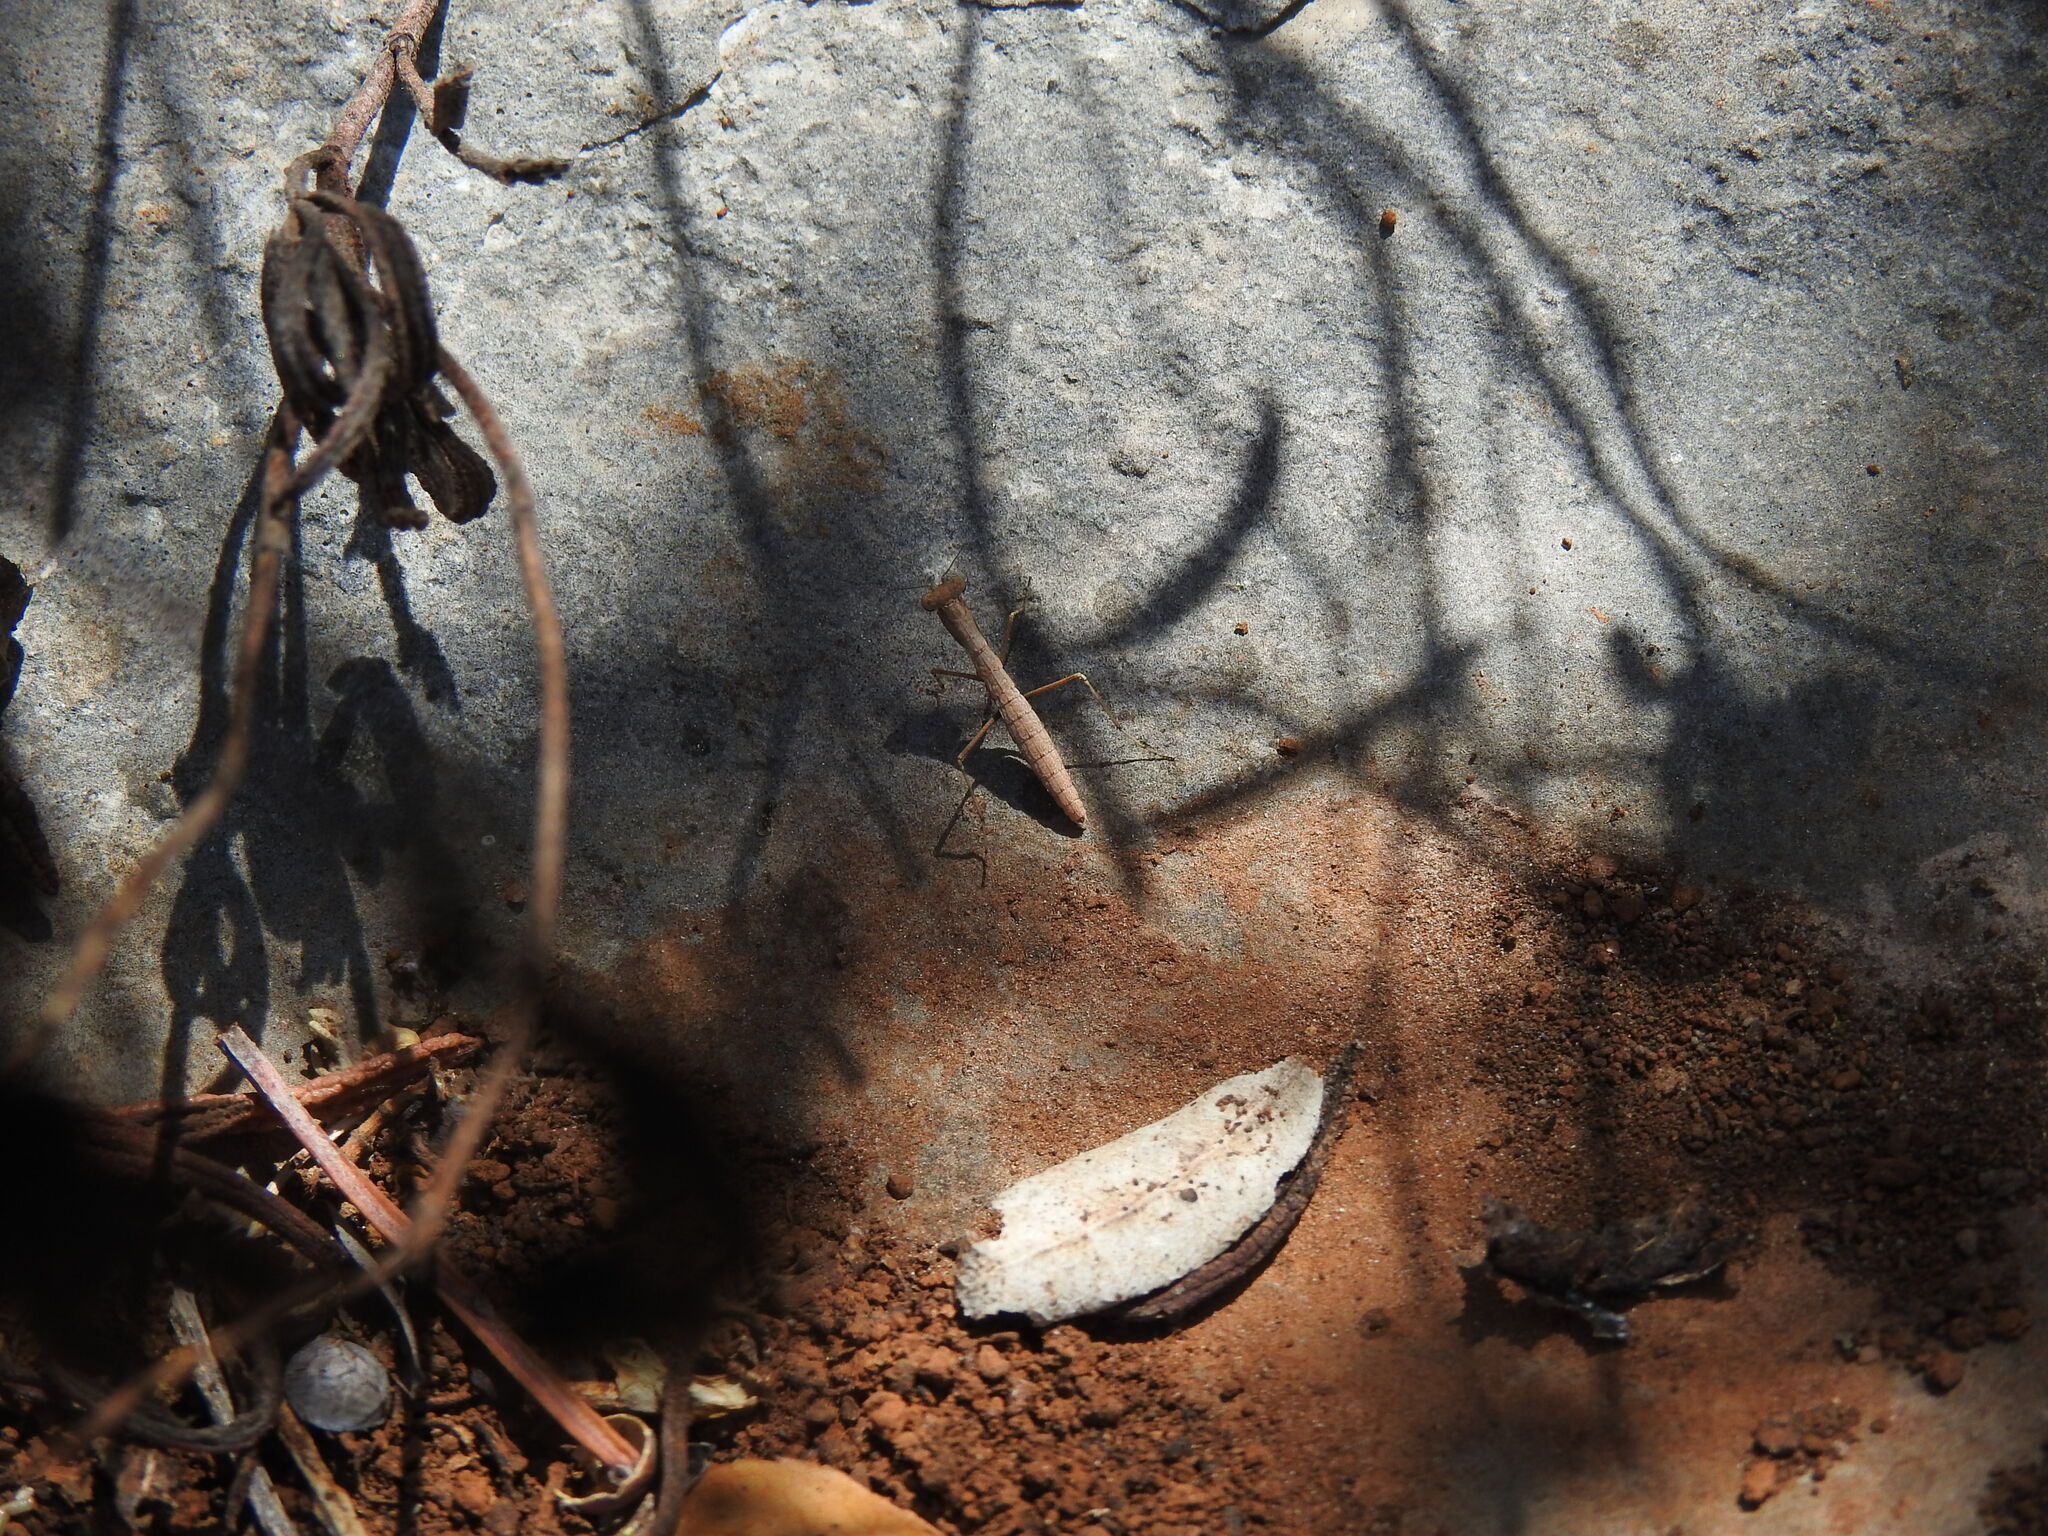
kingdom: Animalia
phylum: Arthropoda
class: Insecta
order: Mantodea
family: Rivetinidae
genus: Geomantis
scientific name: Geomantis larvoides
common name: Wingless ground mantis
